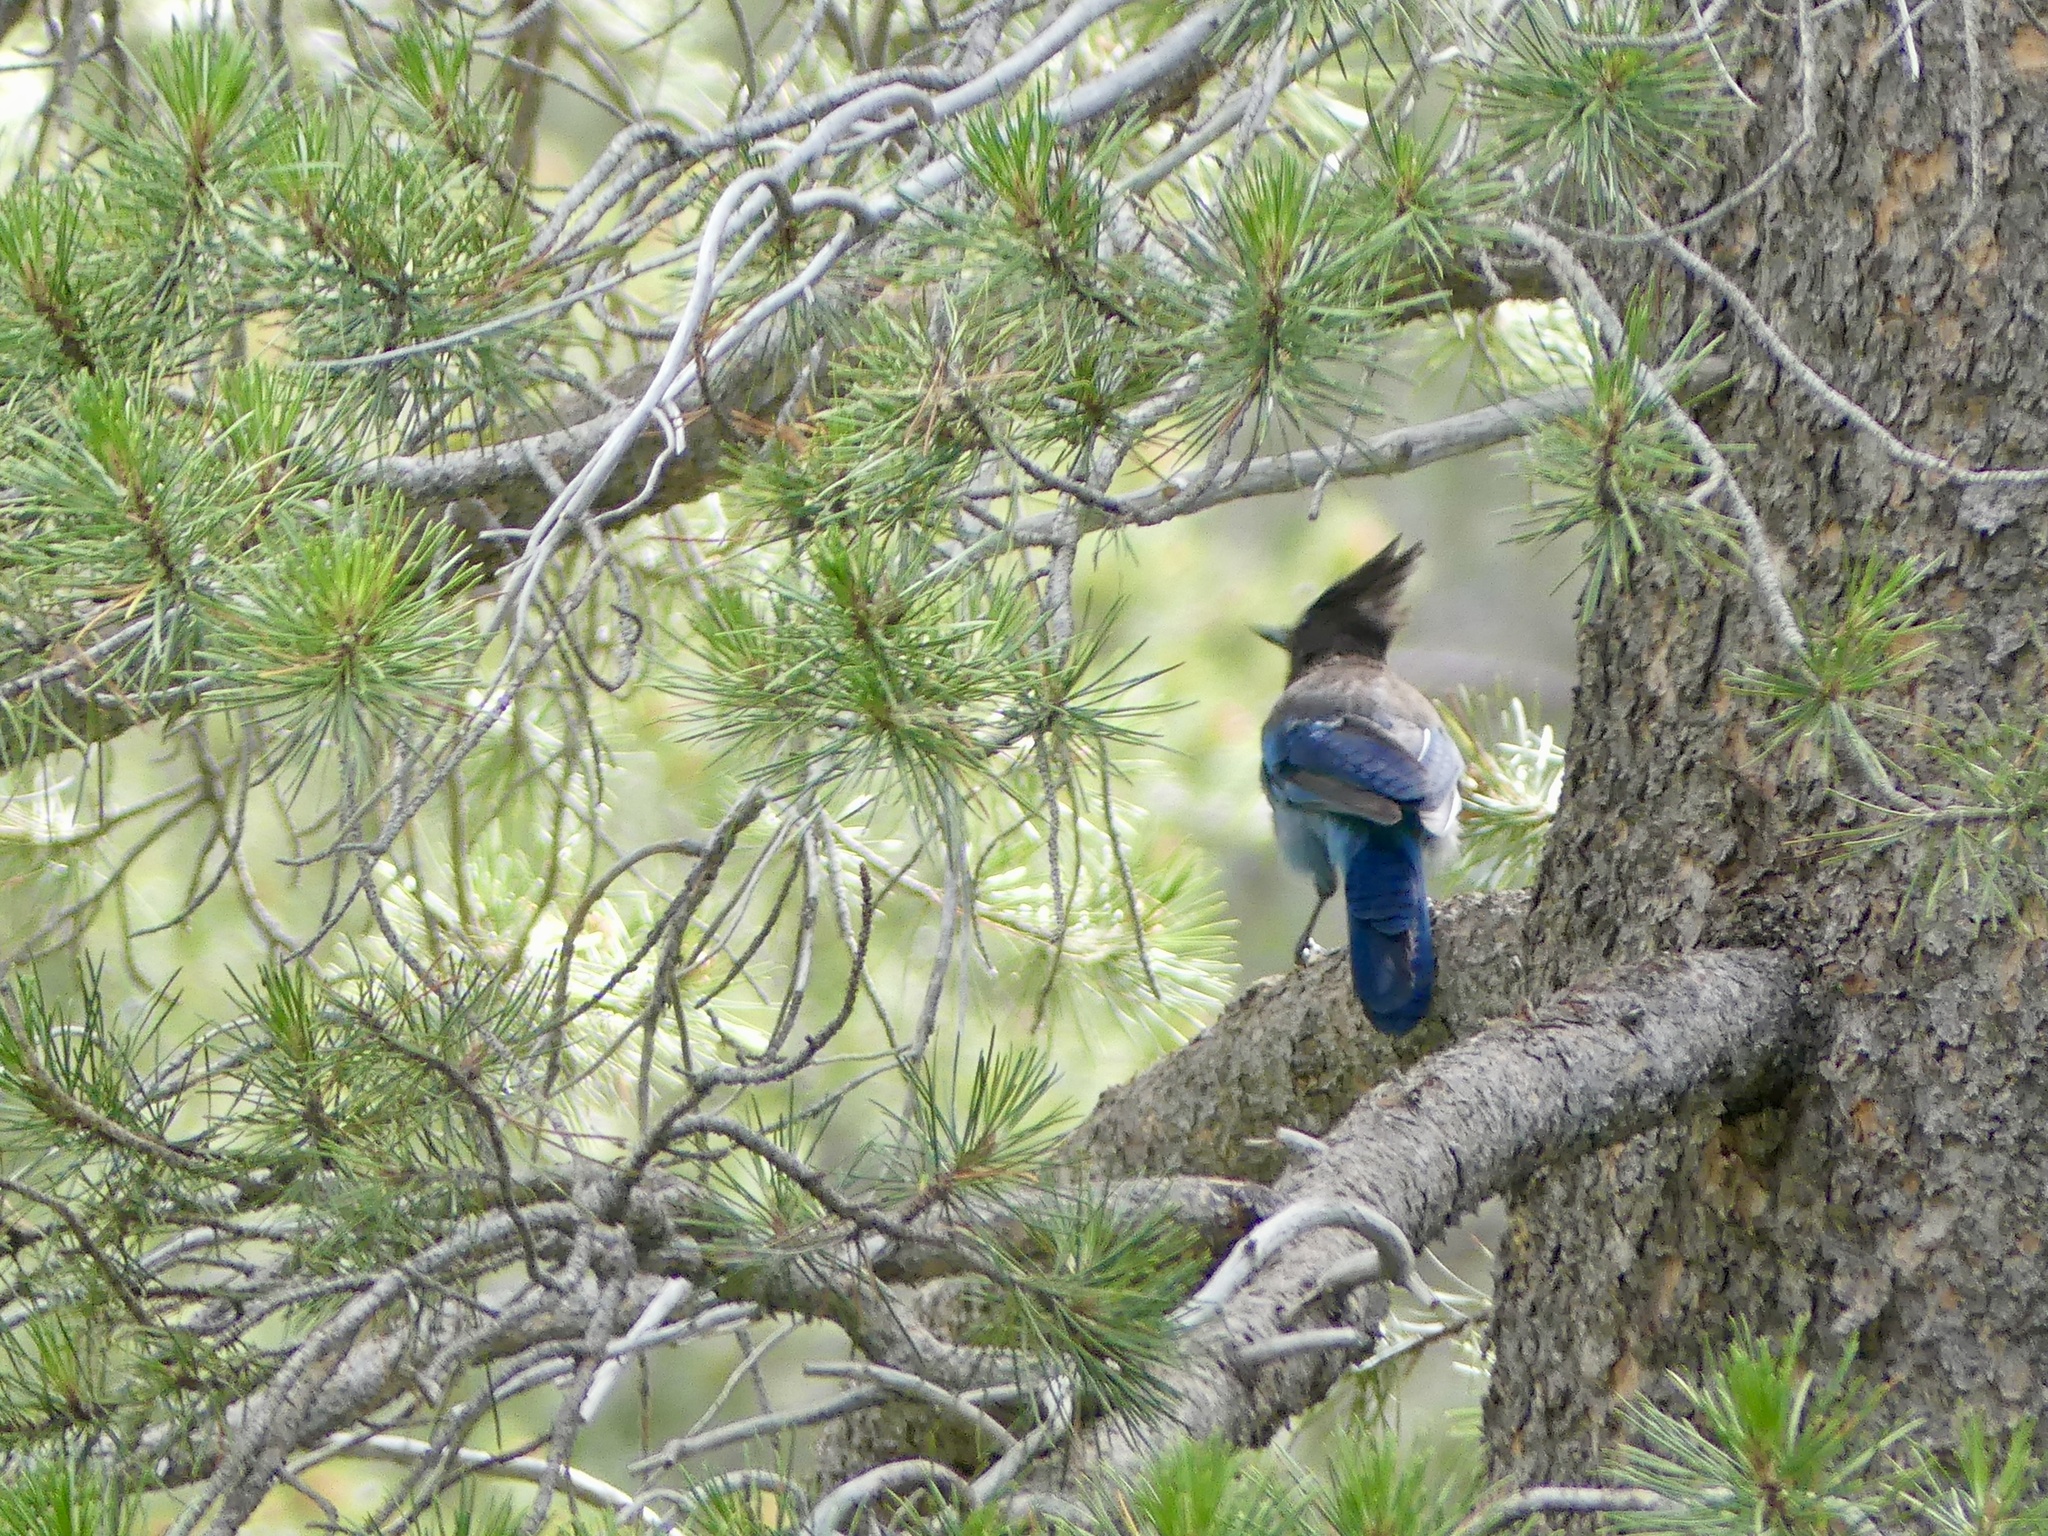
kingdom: Animalia
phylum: Chordata
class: Aves
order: Passeriformes
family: Corvidae
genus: Cyanocitta
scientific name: Cyanocitta stelleri
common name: Steller's jay
